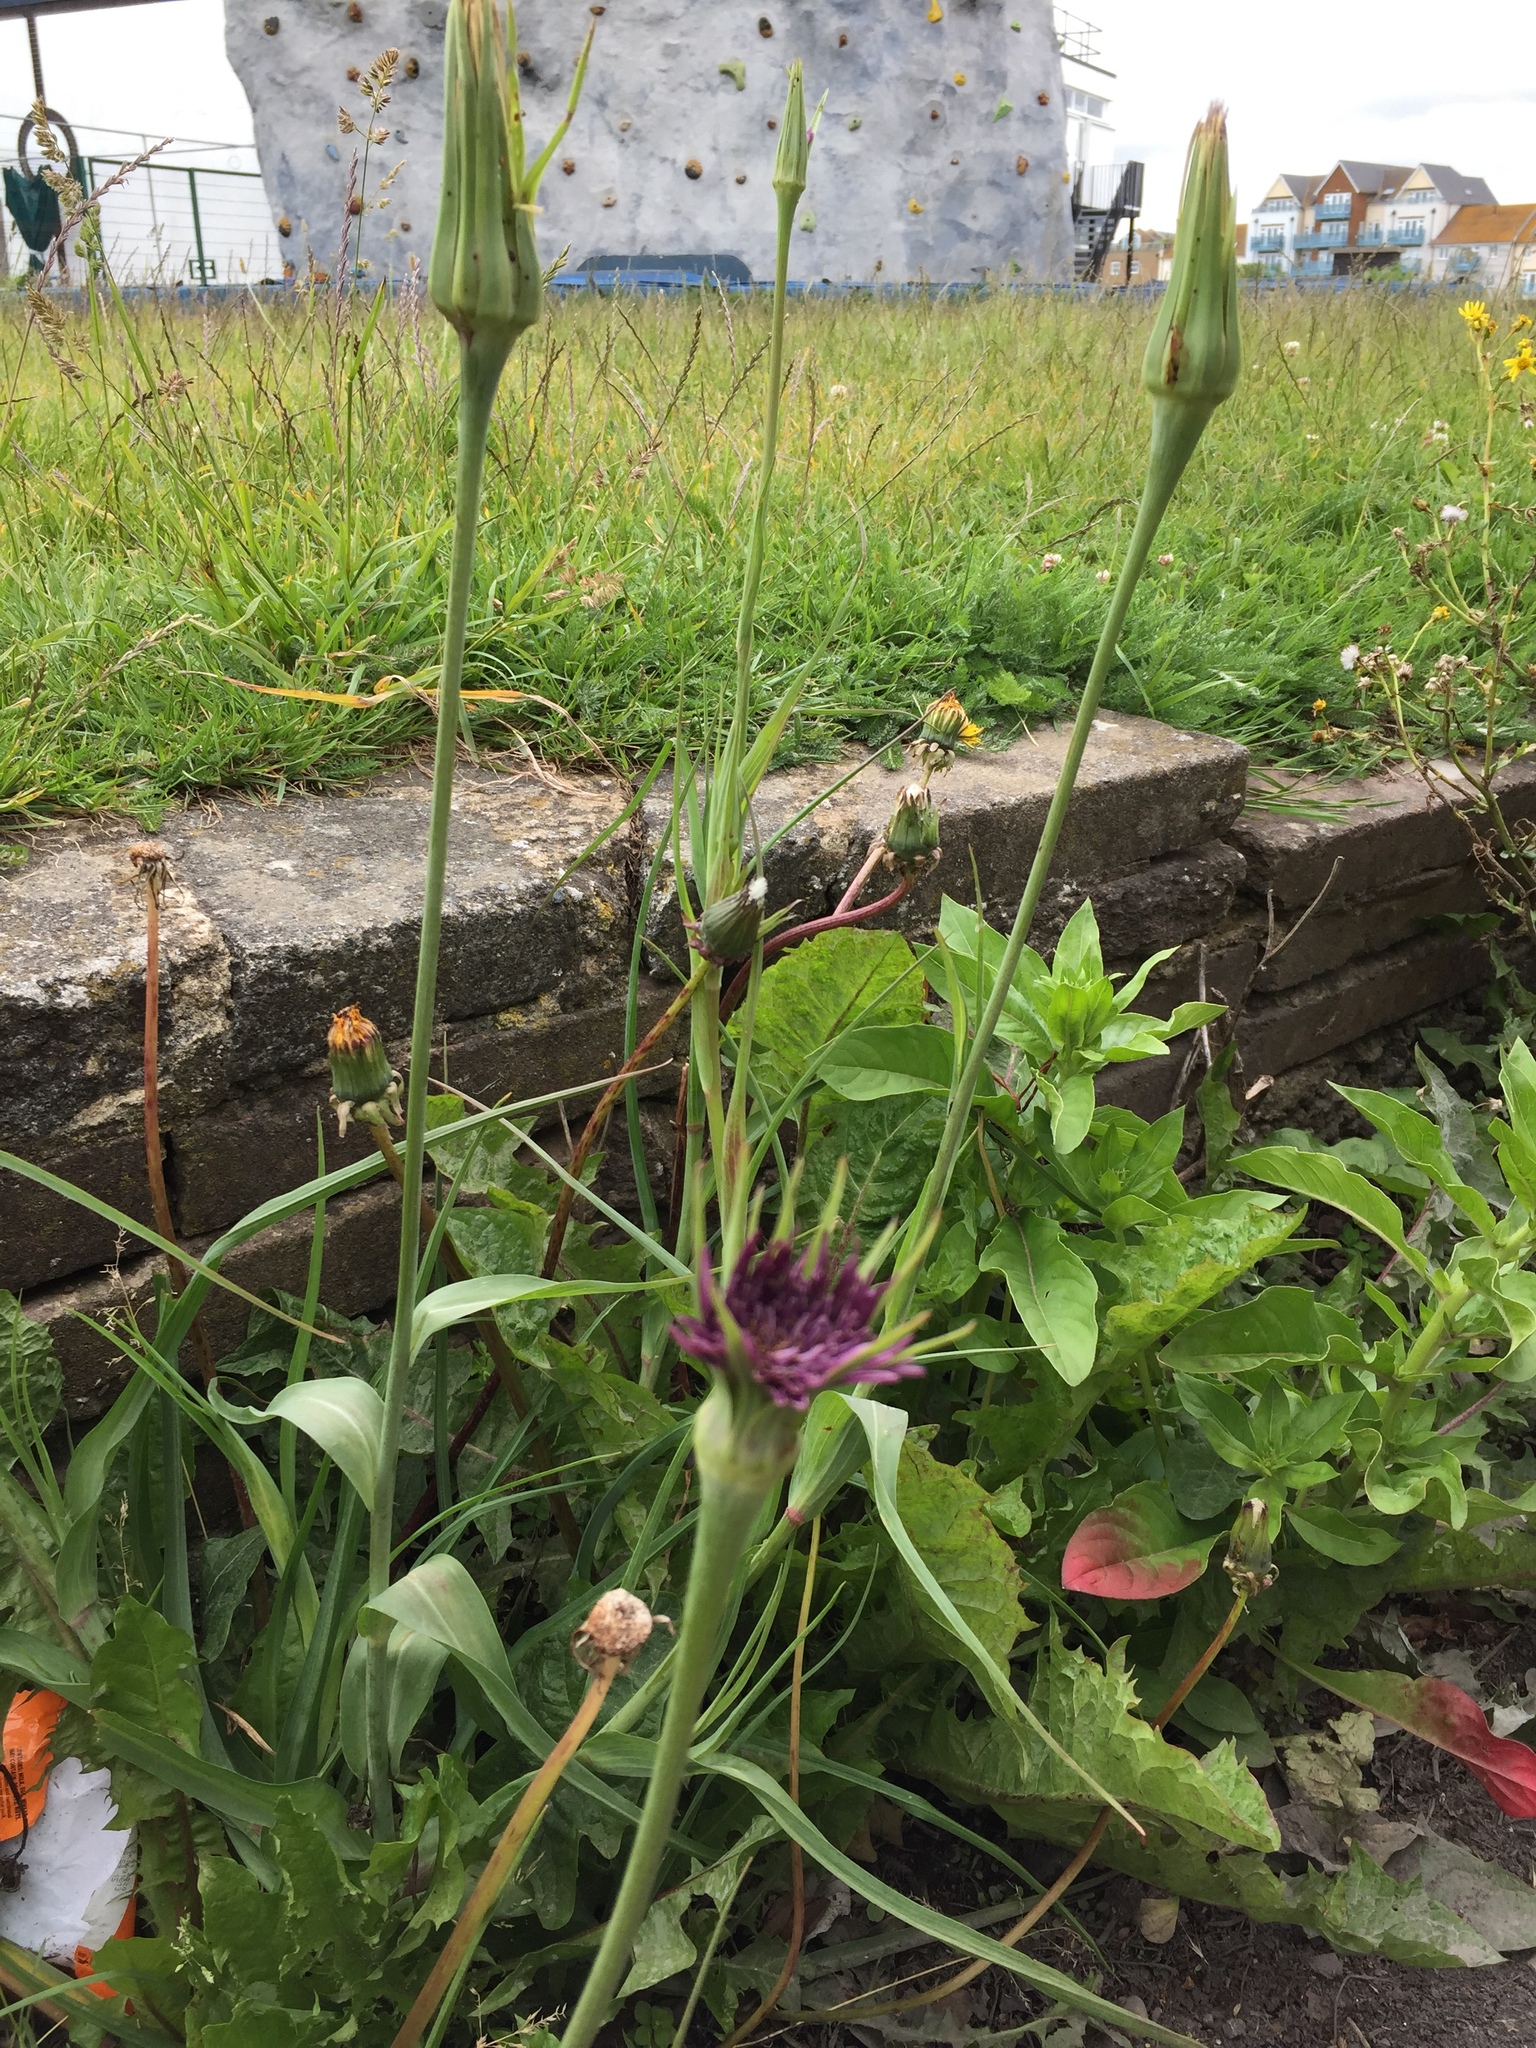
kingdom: Plantae
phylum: Tracheophyta
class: Magnoliopsida
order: Asterales
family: Asteraceae
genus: Tragopogon
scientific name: Tragopogon porrifolius
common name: Salsify
